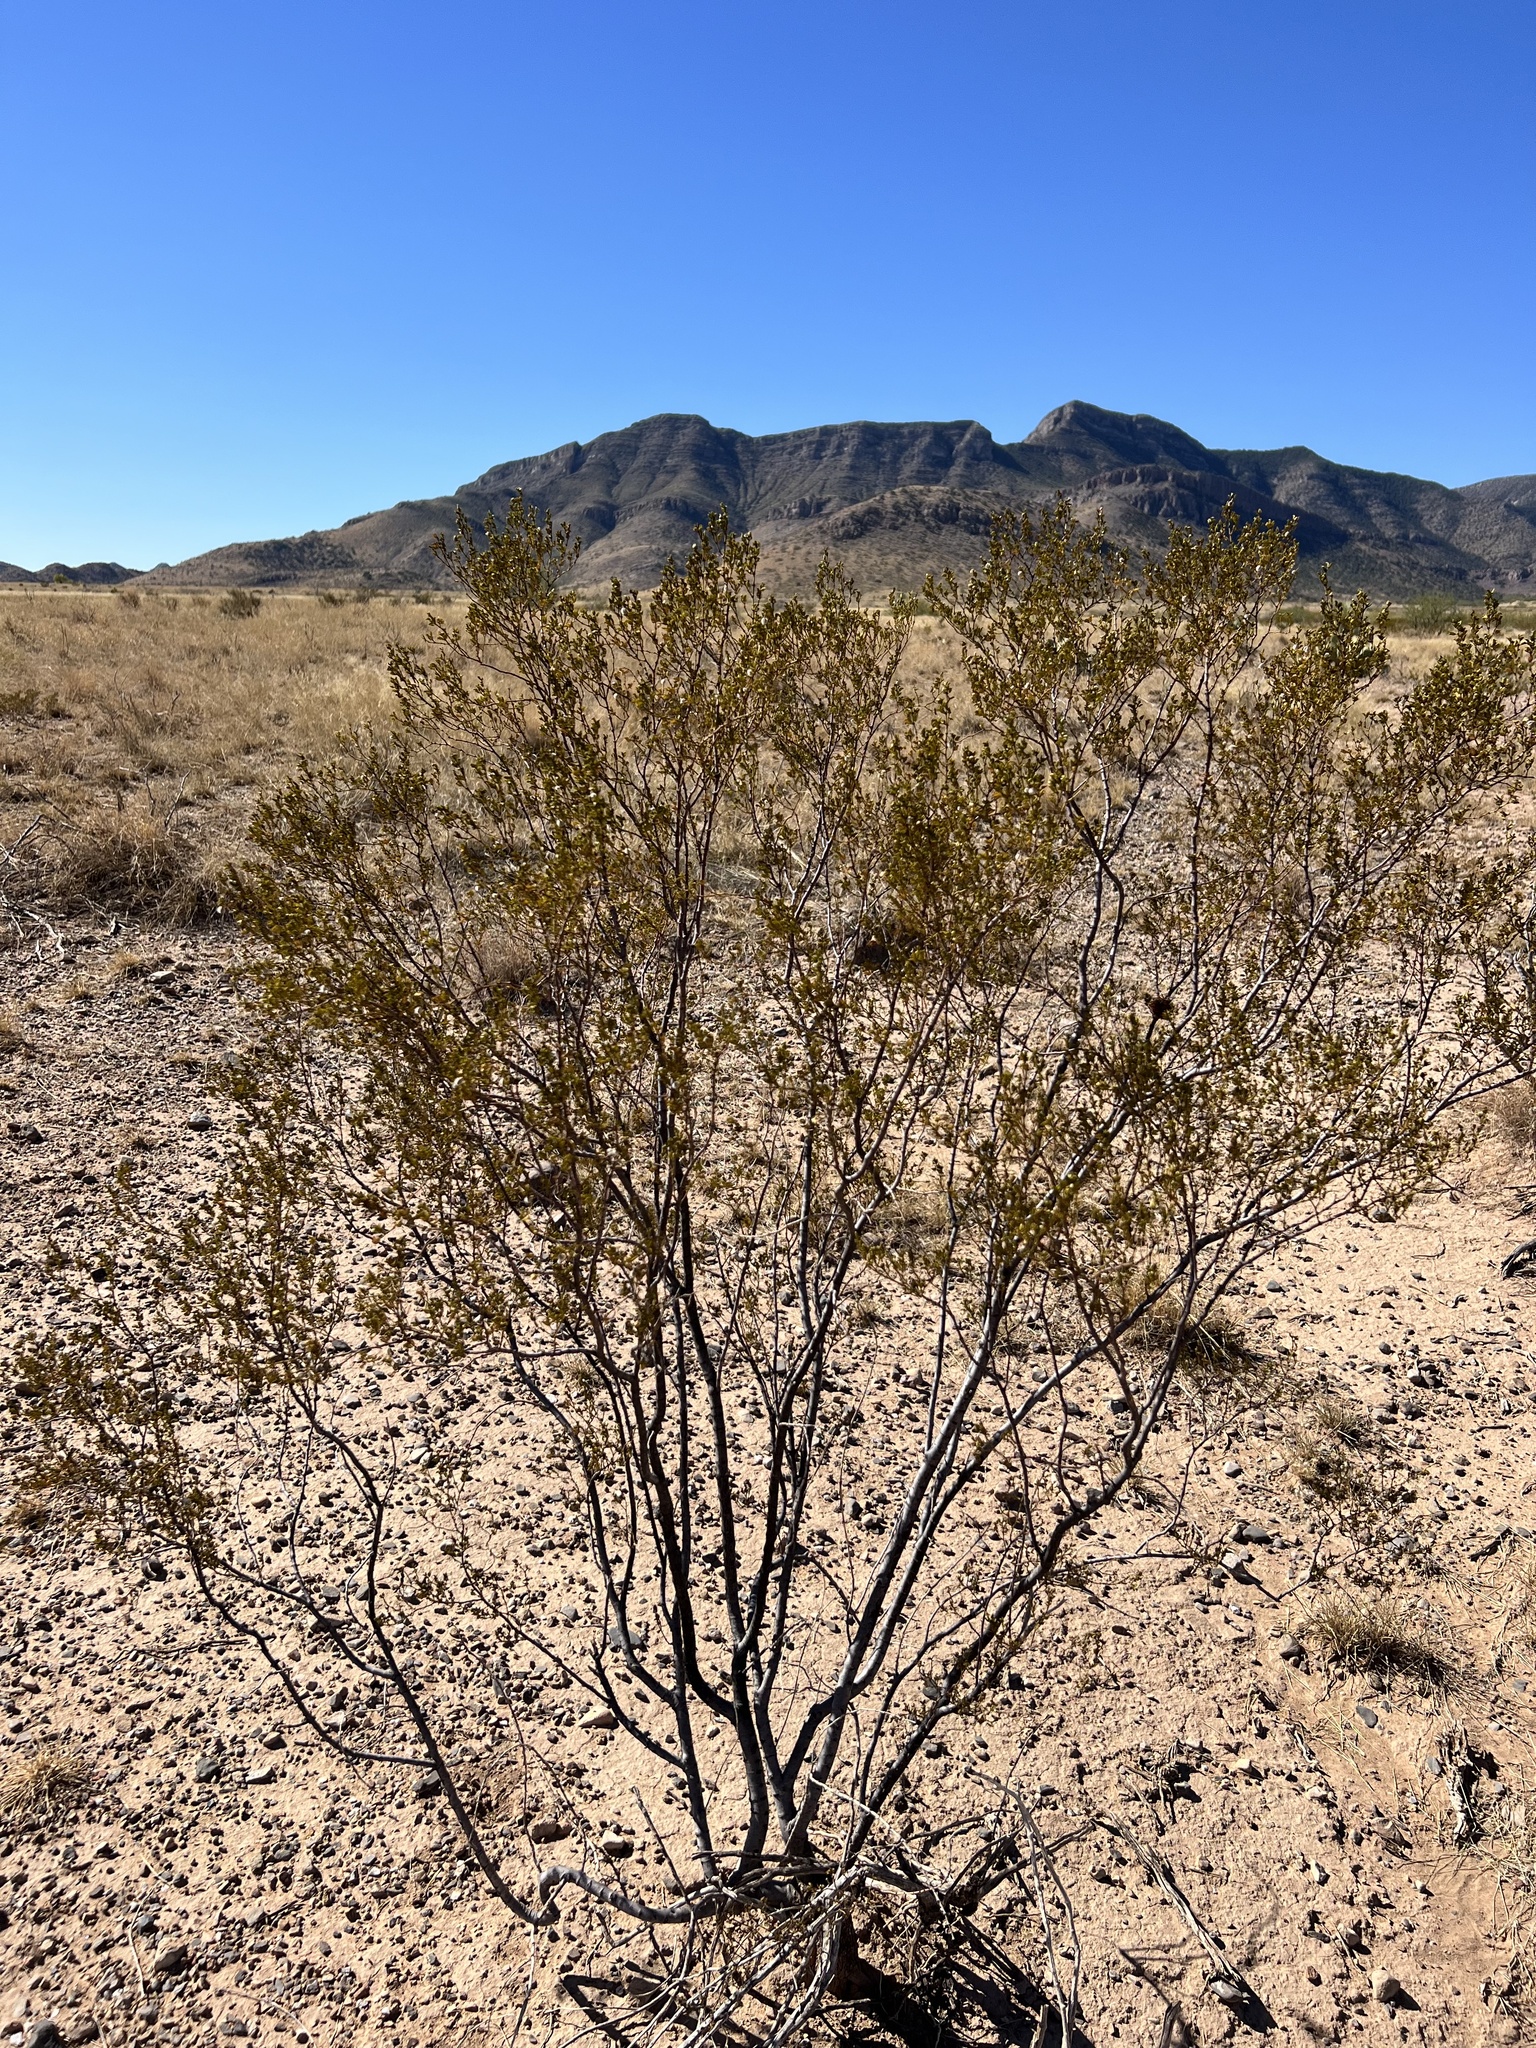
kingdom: Plantae
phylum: Tracheophyta
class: Magnoliopsida
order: Zygophyllales
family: Zygophyllaceae
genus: Larrea
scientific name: Larrea tridentata
